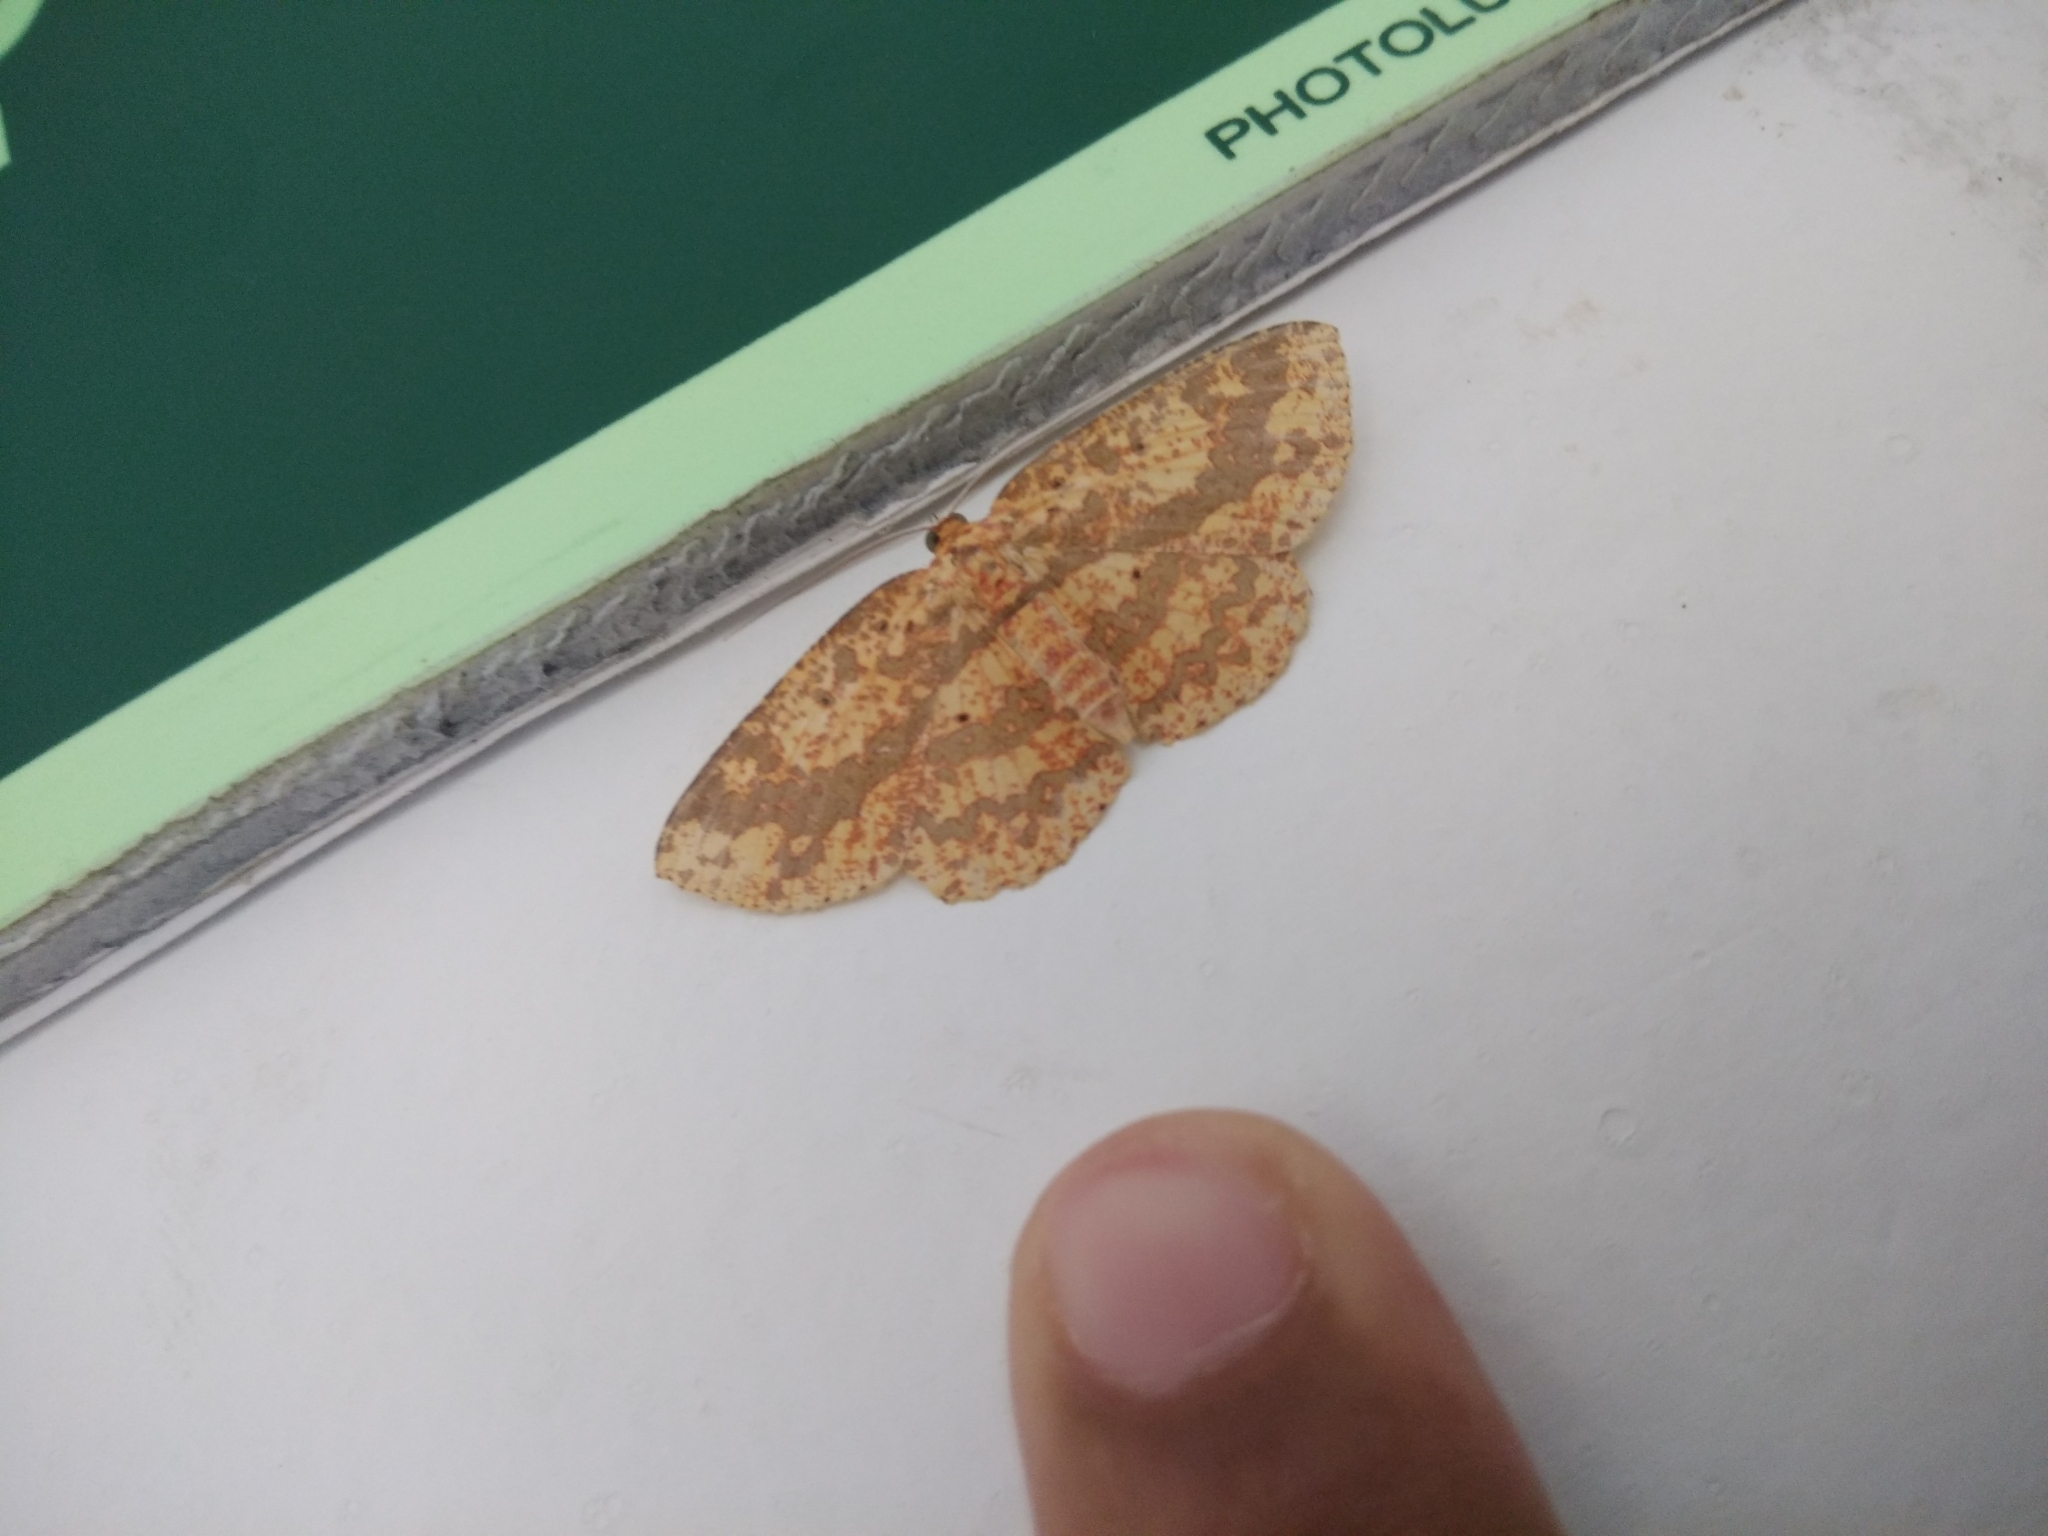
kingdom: Animalia
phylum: Arthropoda
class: Insecta
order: Lepidoptera
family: Geometridae
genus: Borbacha
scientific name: Borbacha pardaria
